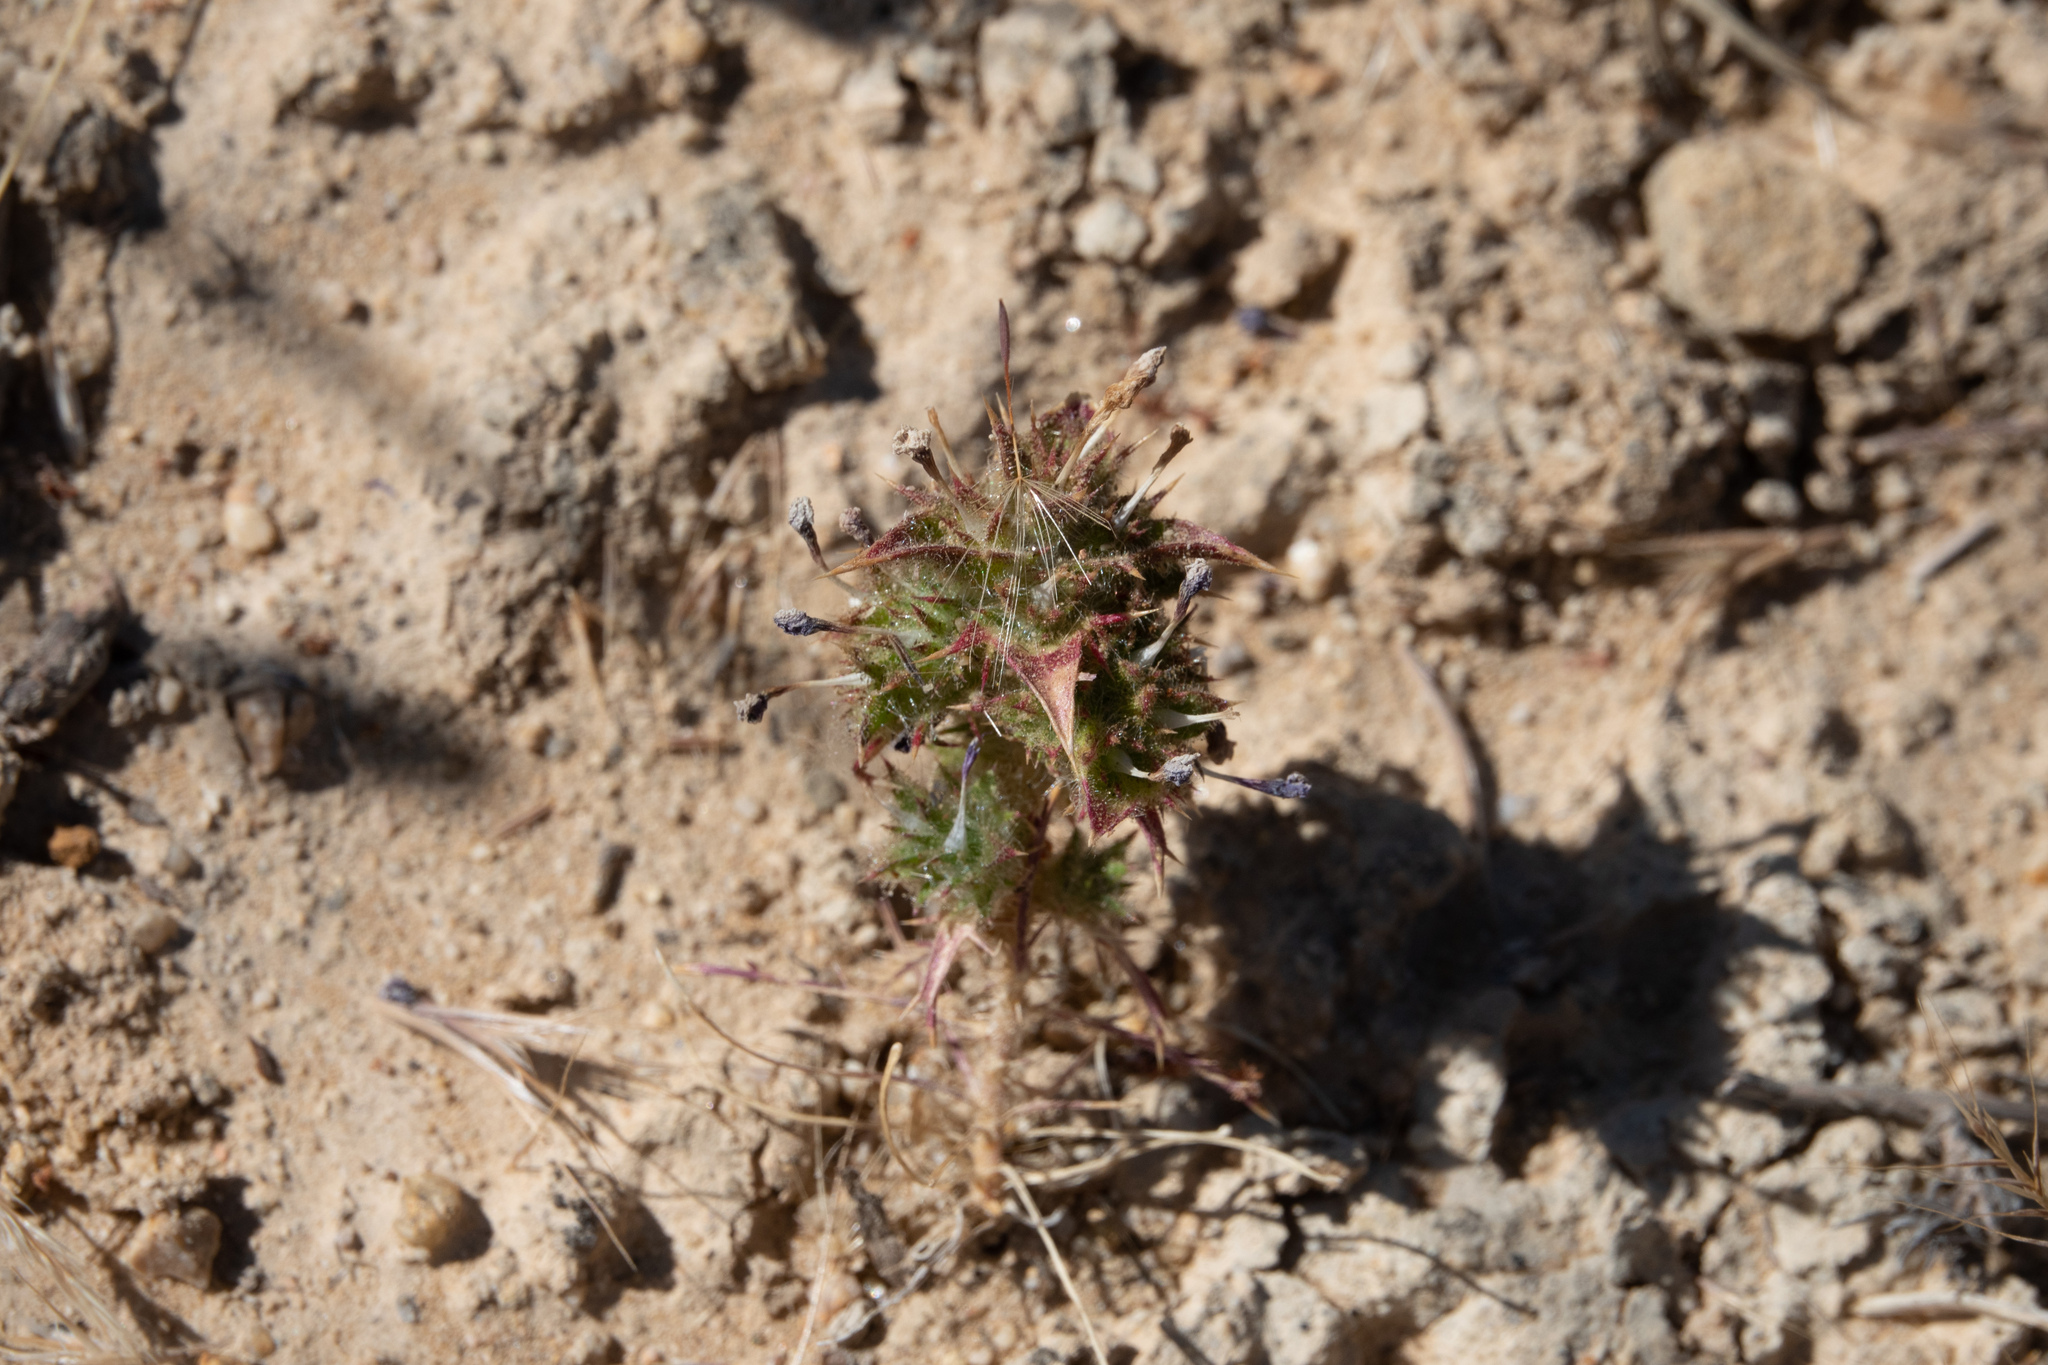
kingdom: Plantae
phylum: Tracheophyta
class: Magnoliopsida
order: Ericales
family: Polemoniaceae
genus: Navarretia
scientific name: Navarretia atractyloides
